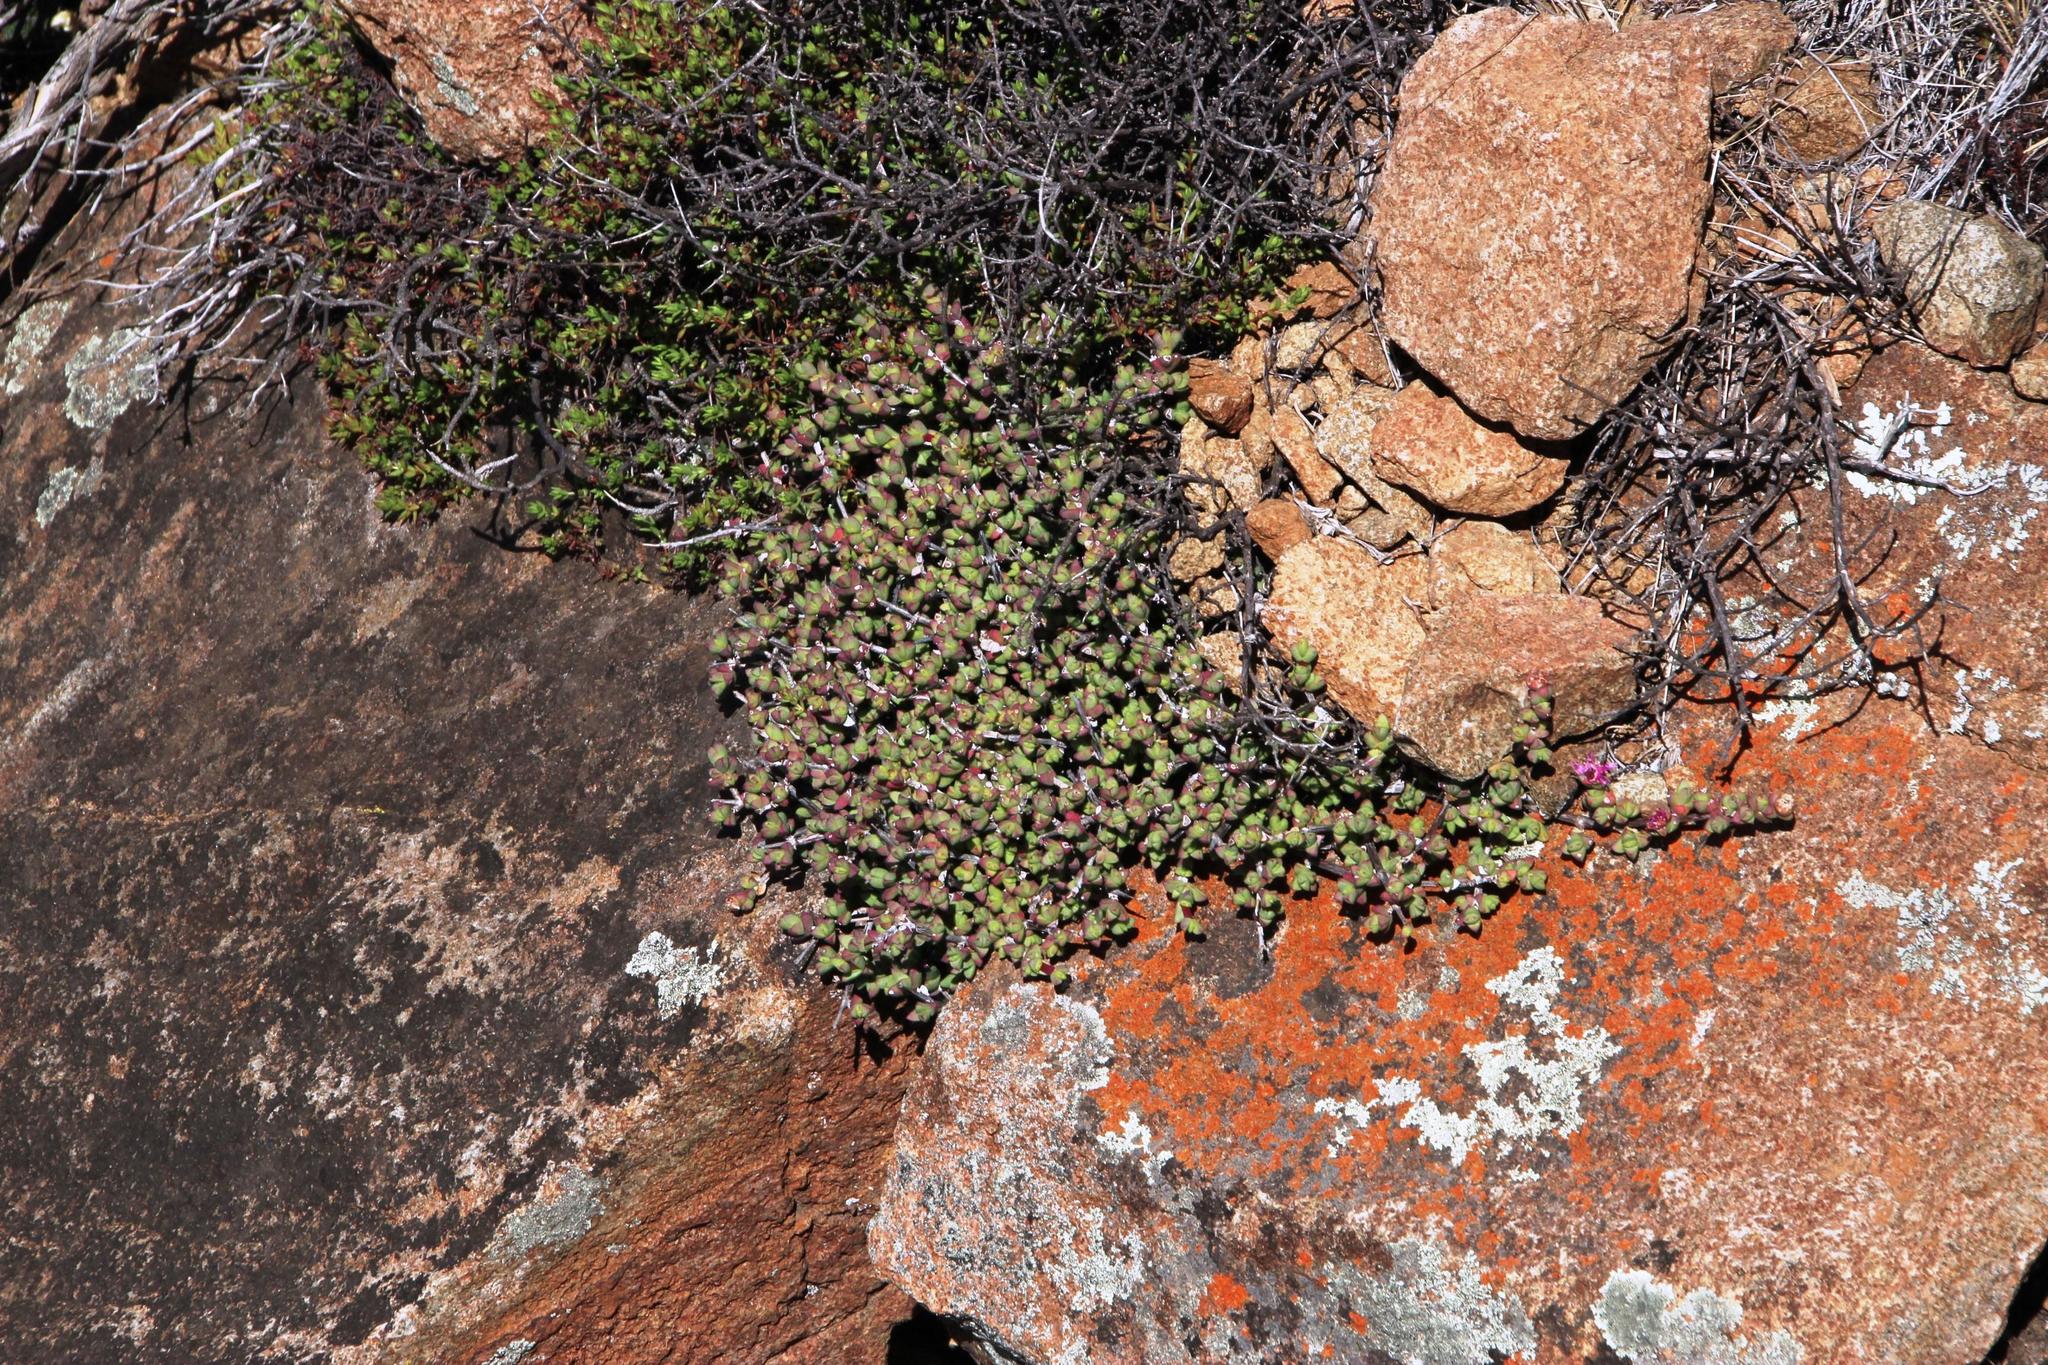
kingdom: Plantae
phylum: Tracheophyta
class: Magnoliopsida
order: Caryophyllales
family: Aizoaceae
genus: Ruschia
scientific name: Ruschia putterillii
